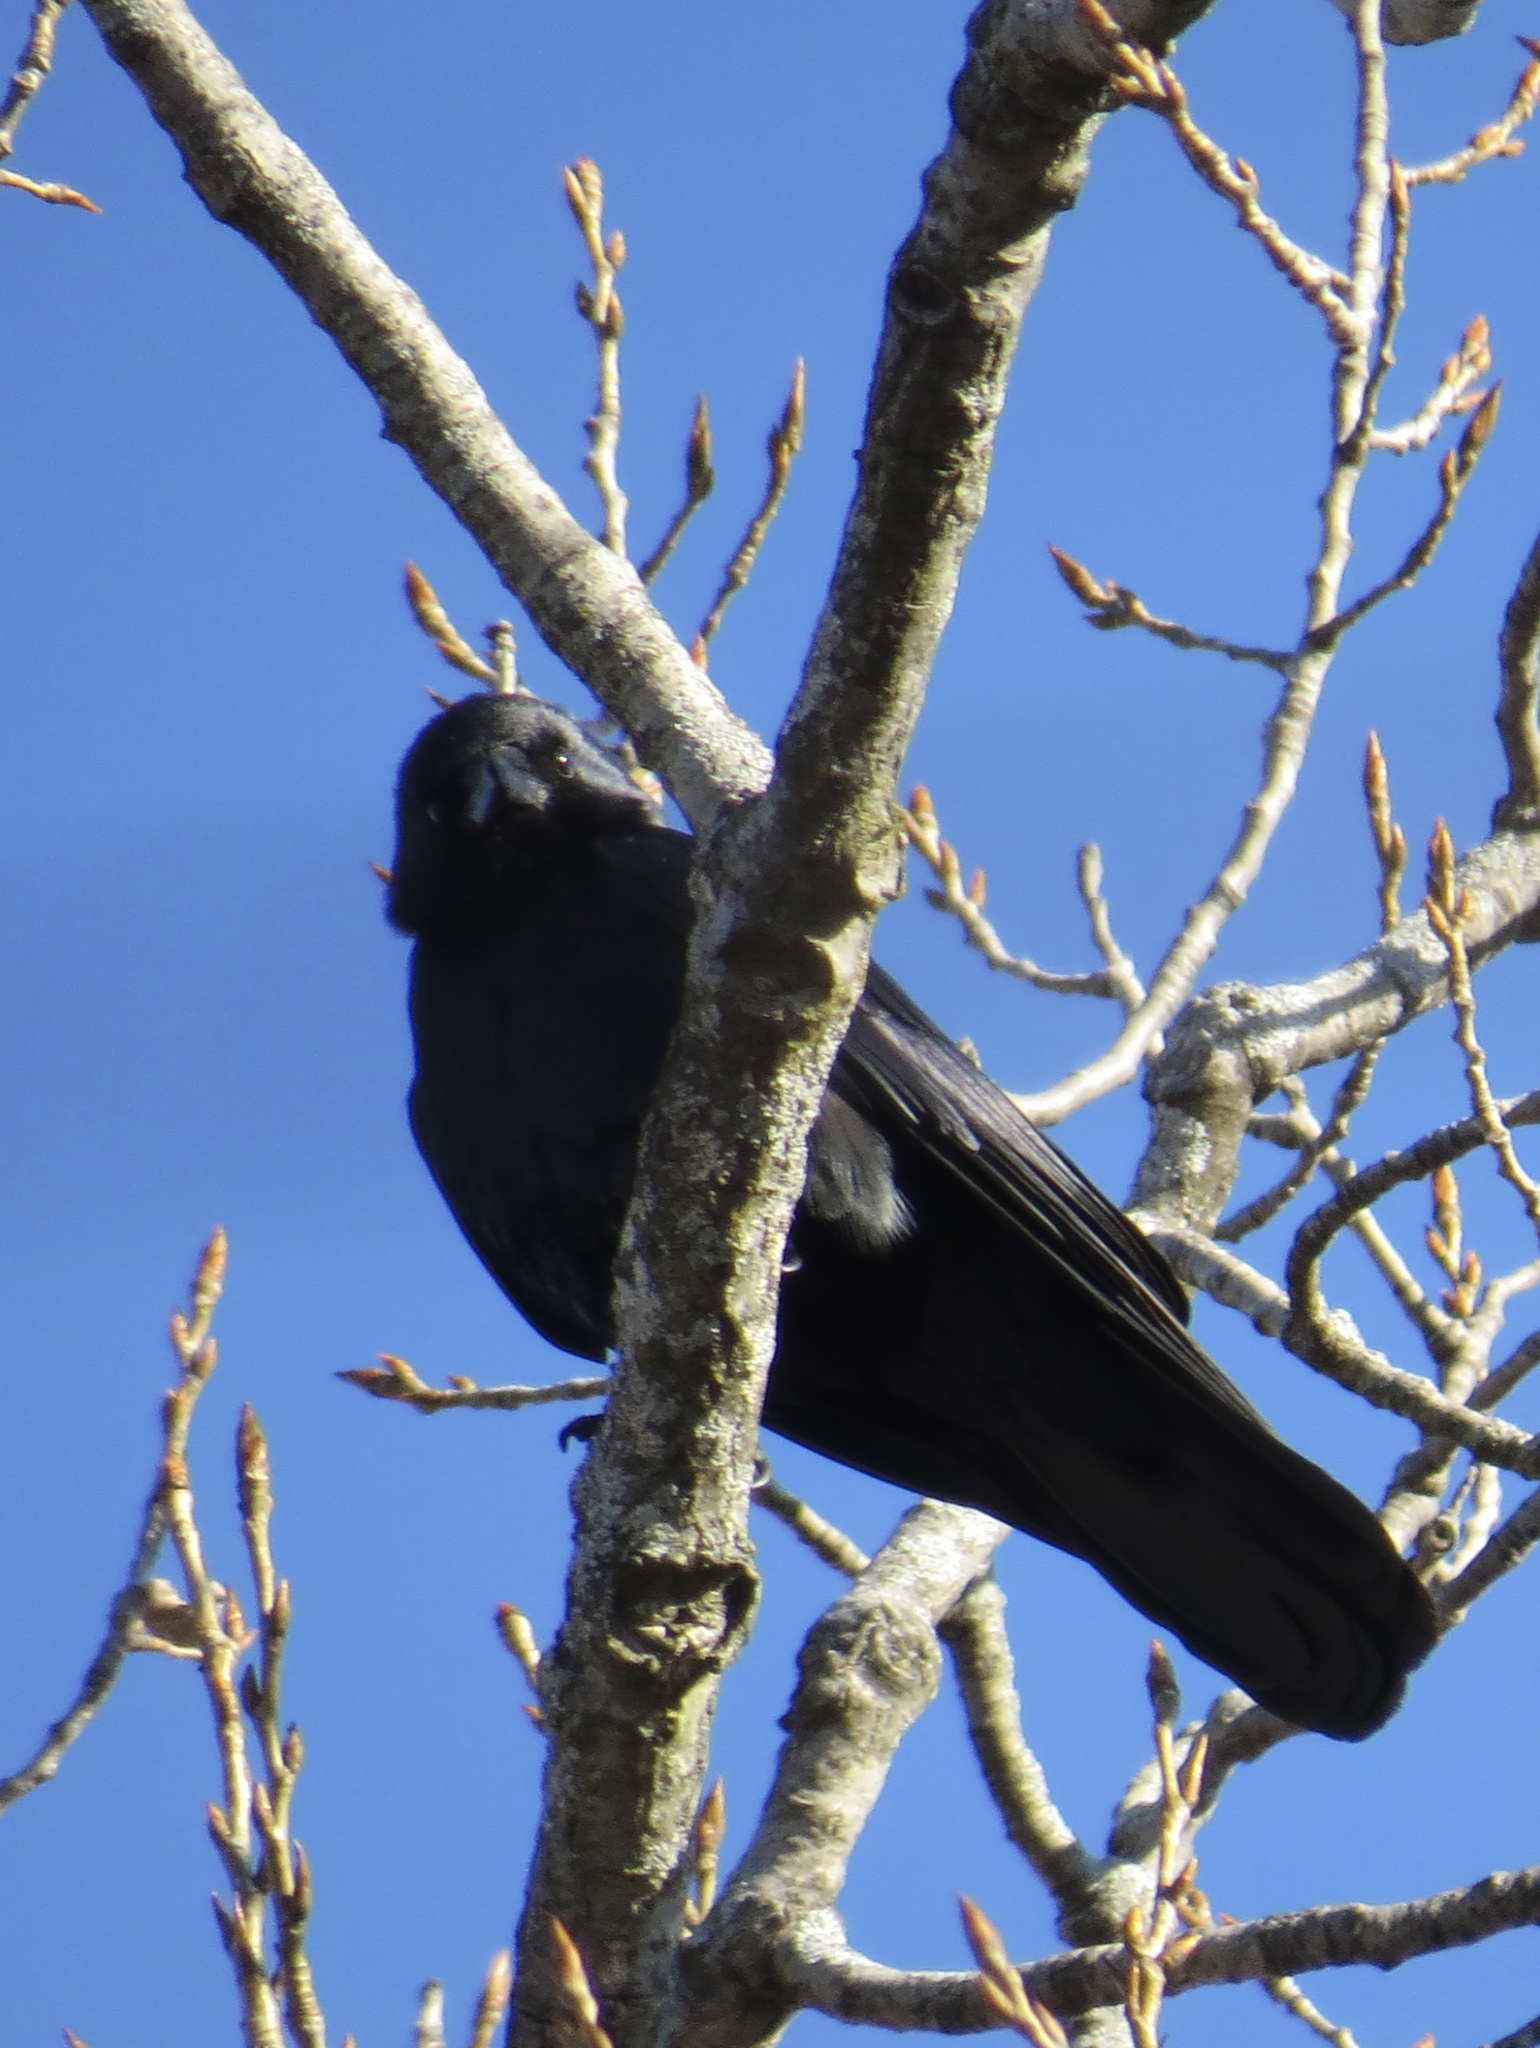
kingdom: Animalia
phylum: Chordata
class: Aves
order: Passeriformes
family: Corvidae
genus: Corvus
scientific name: Corvus ossifragus
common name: Fish crow
